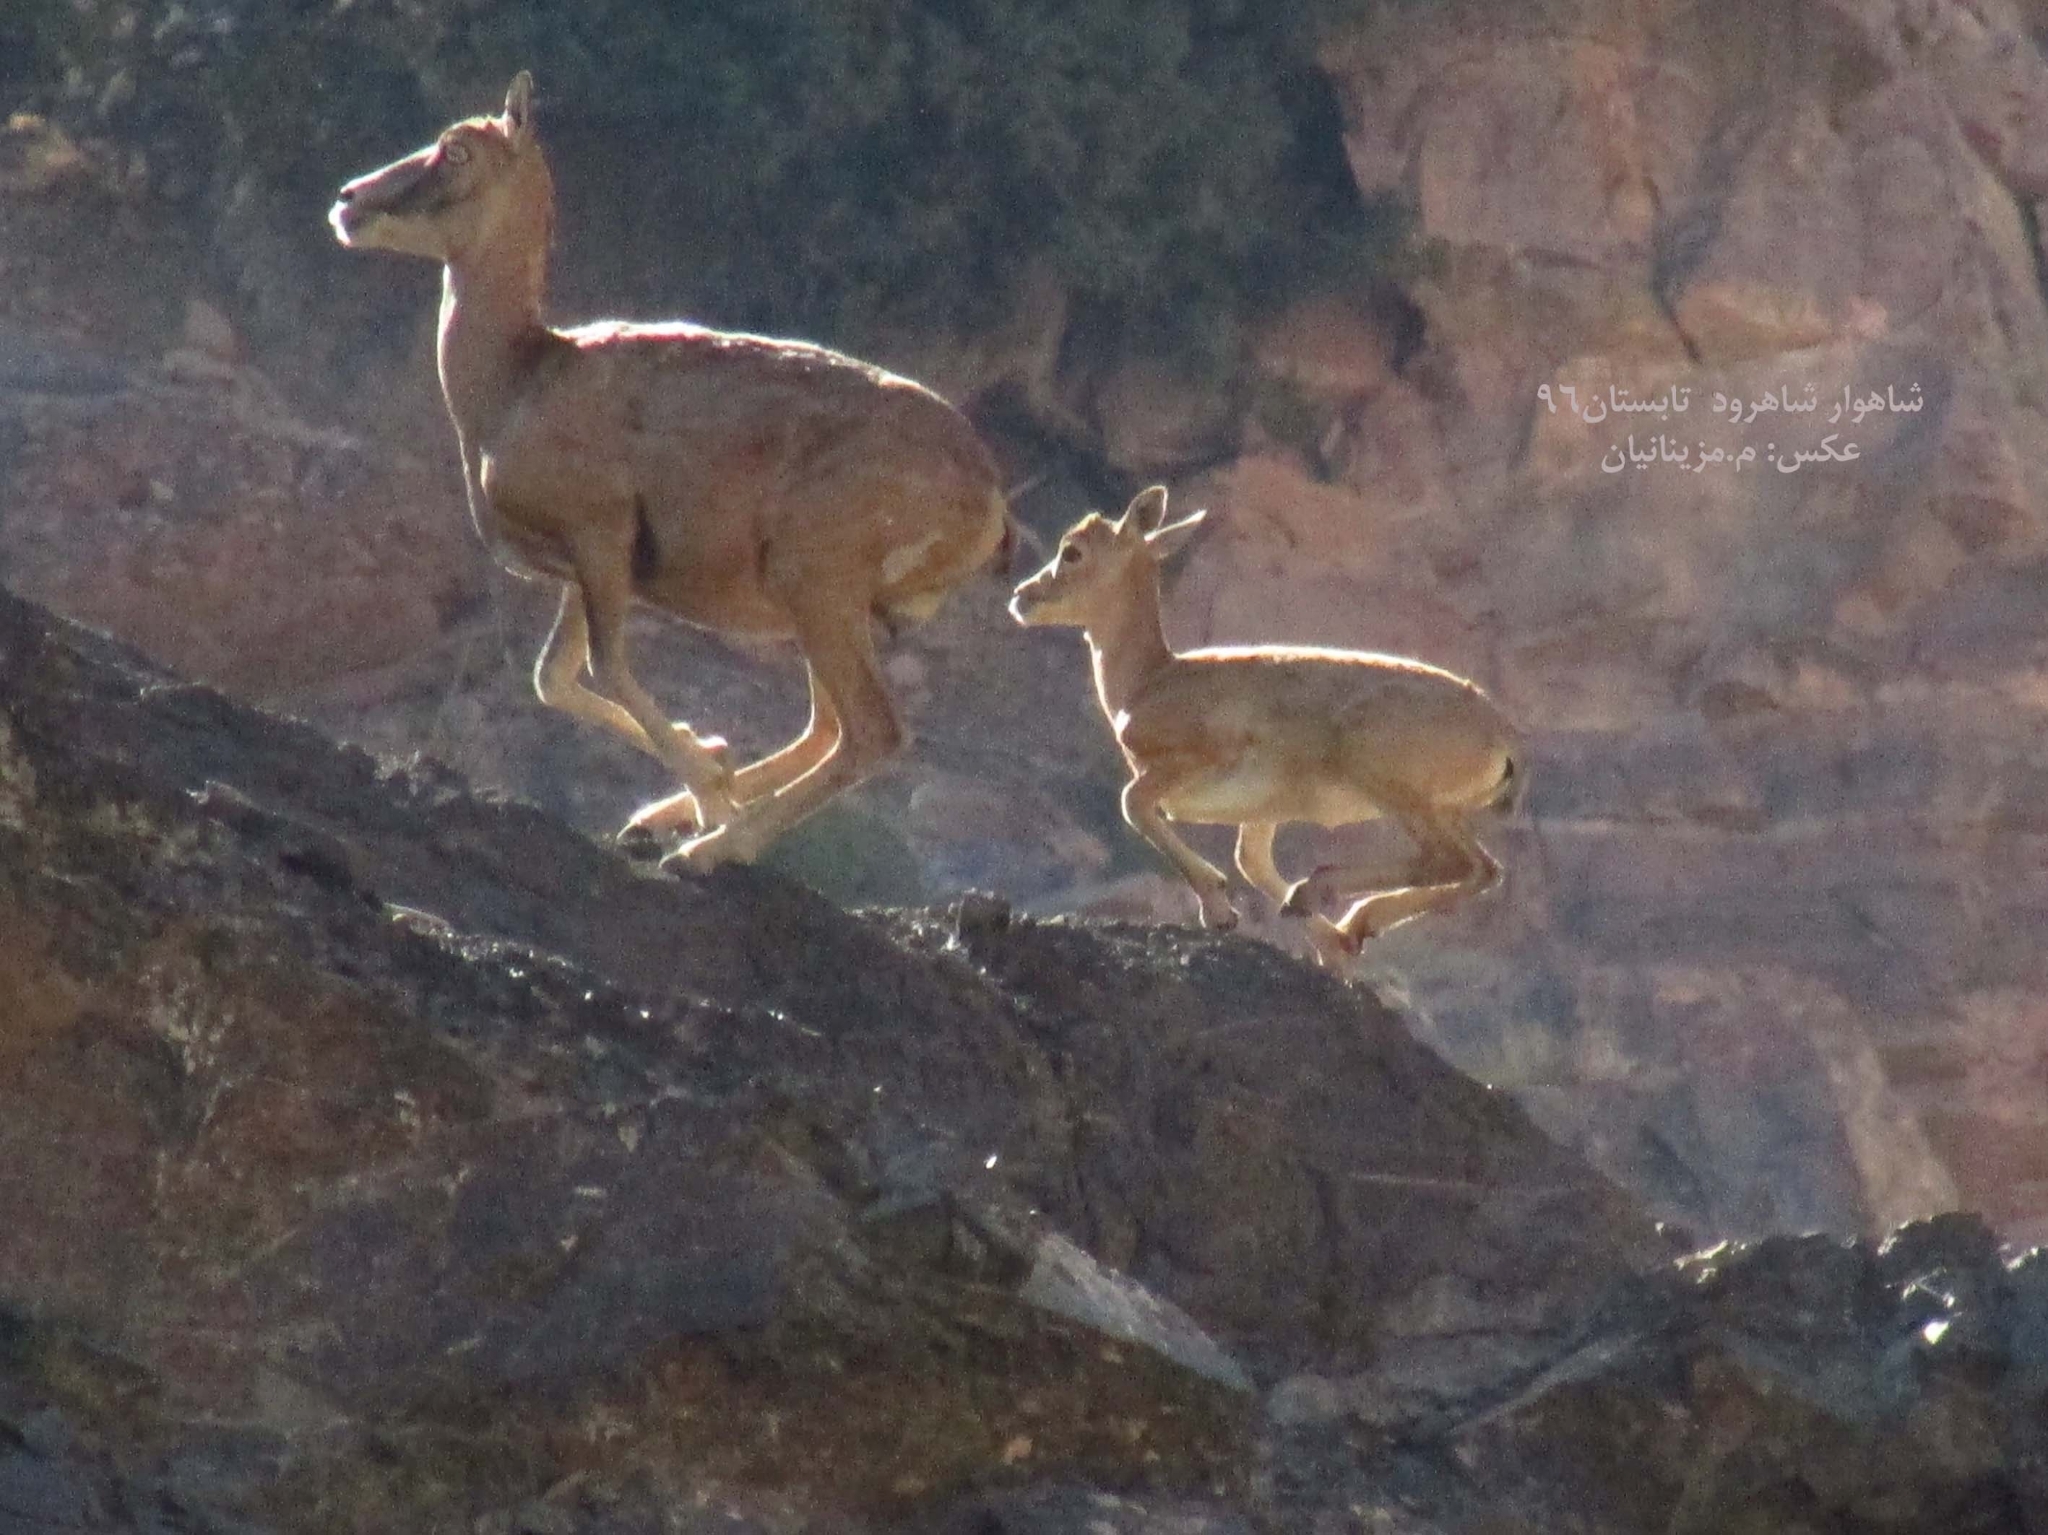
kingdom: Animalia
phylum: Chordata
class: Mammalia
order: Artiodactyla
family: Bovidae
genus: Ovis
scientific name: Ovis aries
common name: Domestic sheep
